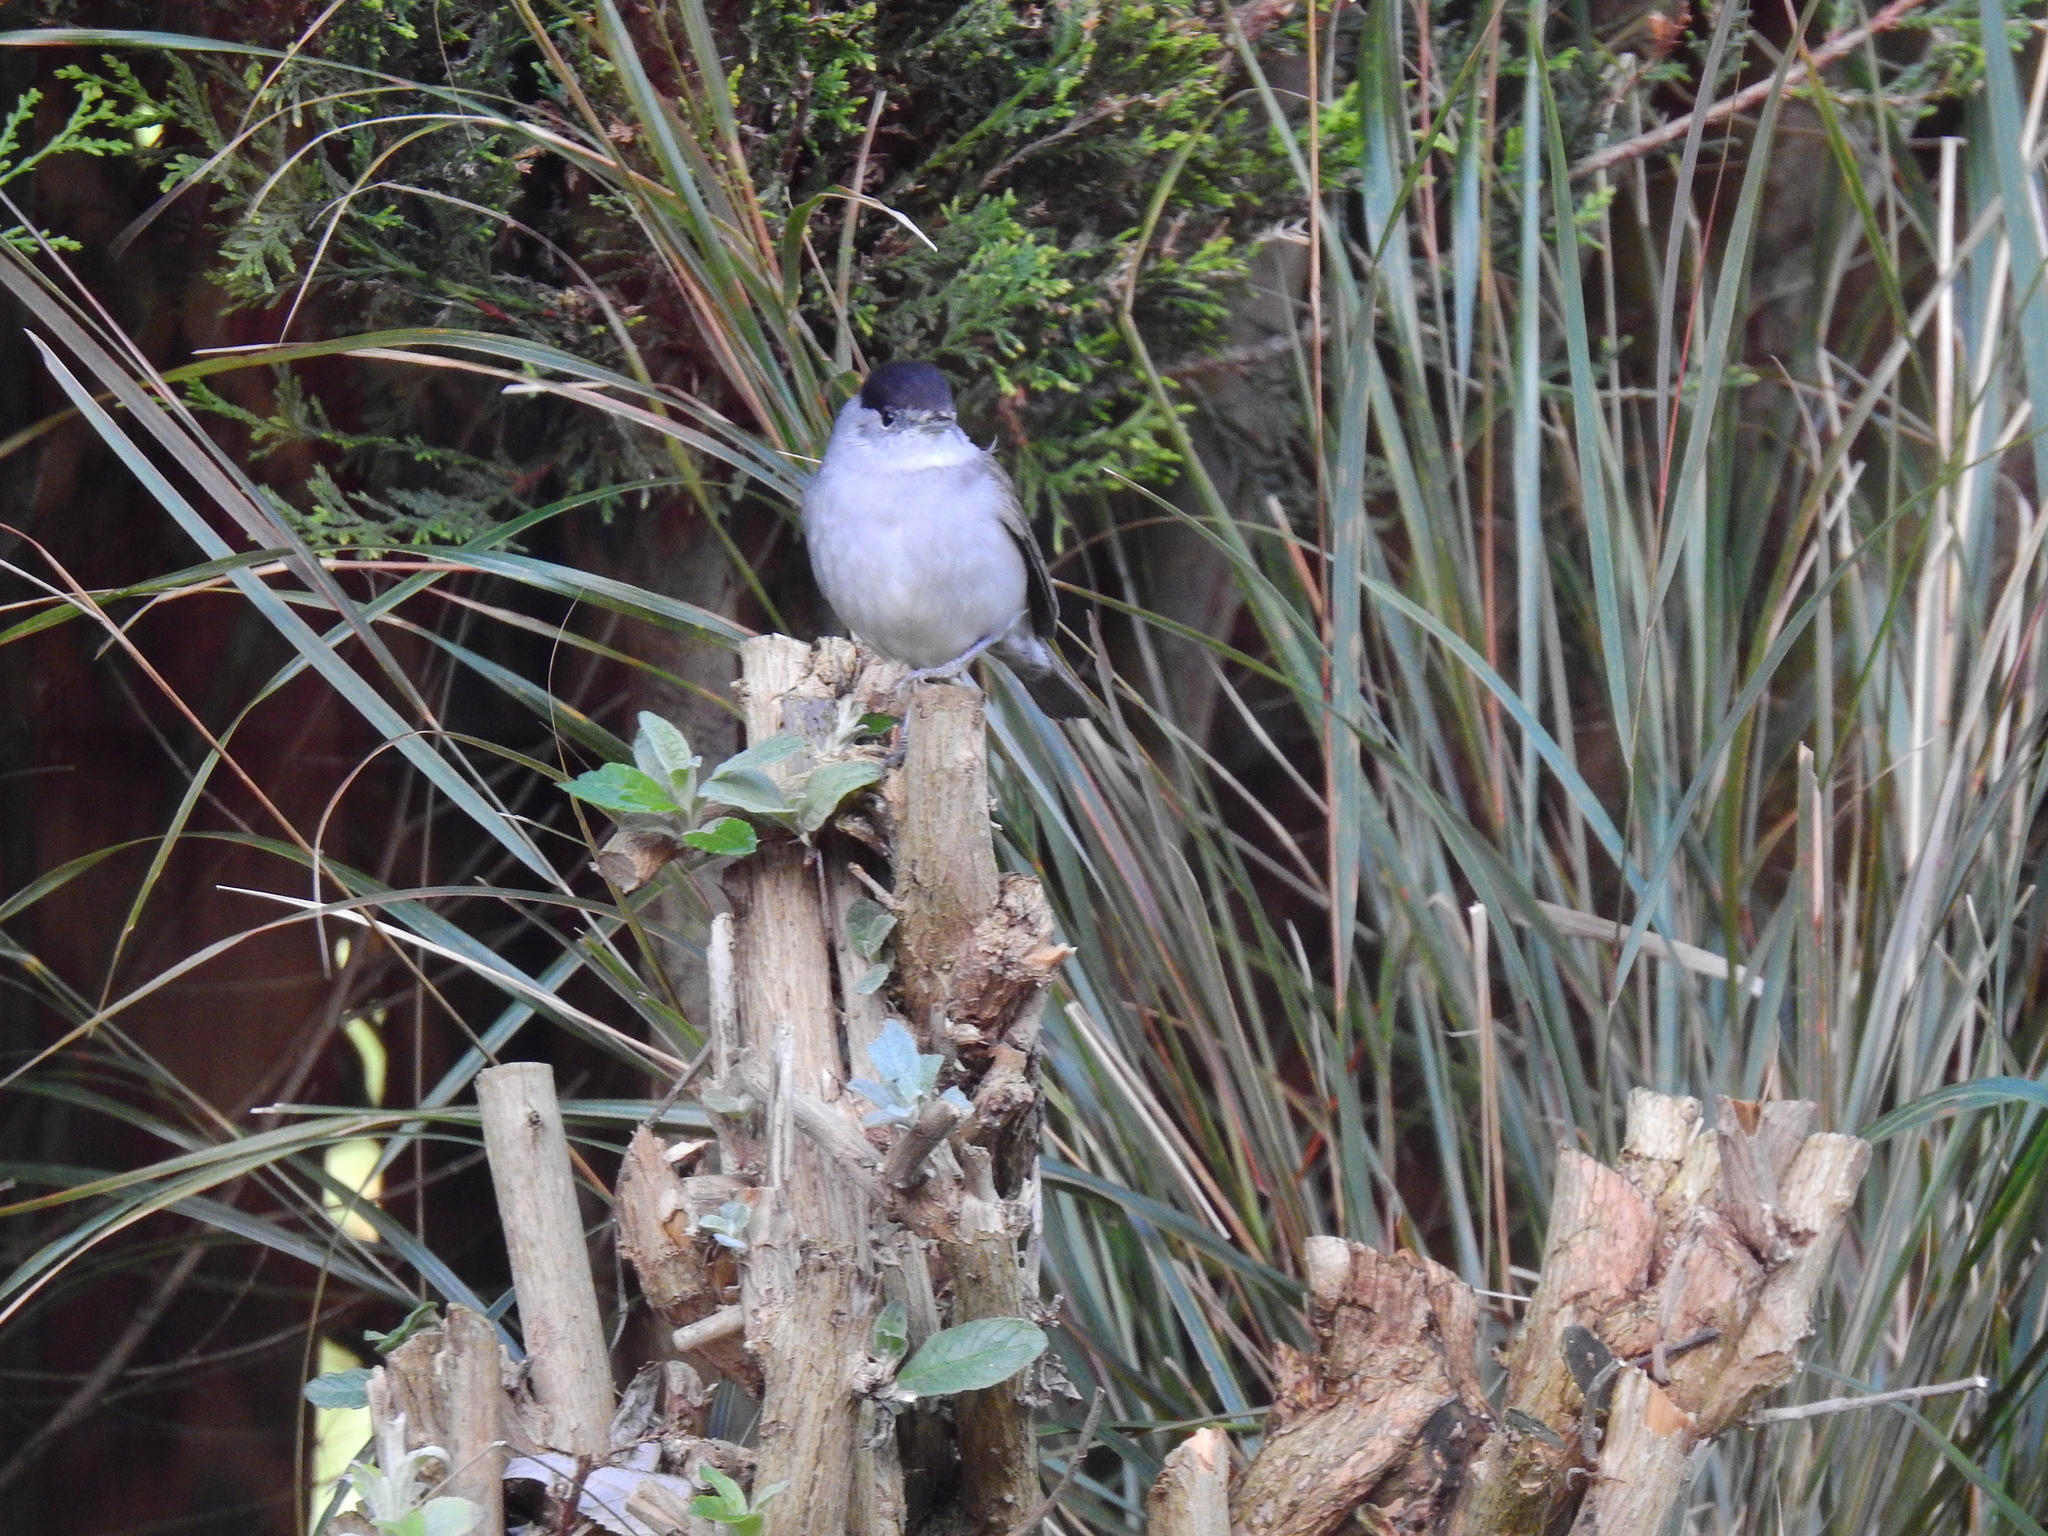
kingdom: Animalia
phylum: Chordata
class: Aves
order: Passeriformes
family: Sylviidae
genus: Sylvia
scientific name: Sylvia atricapilla
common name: Eurasian blackcap
